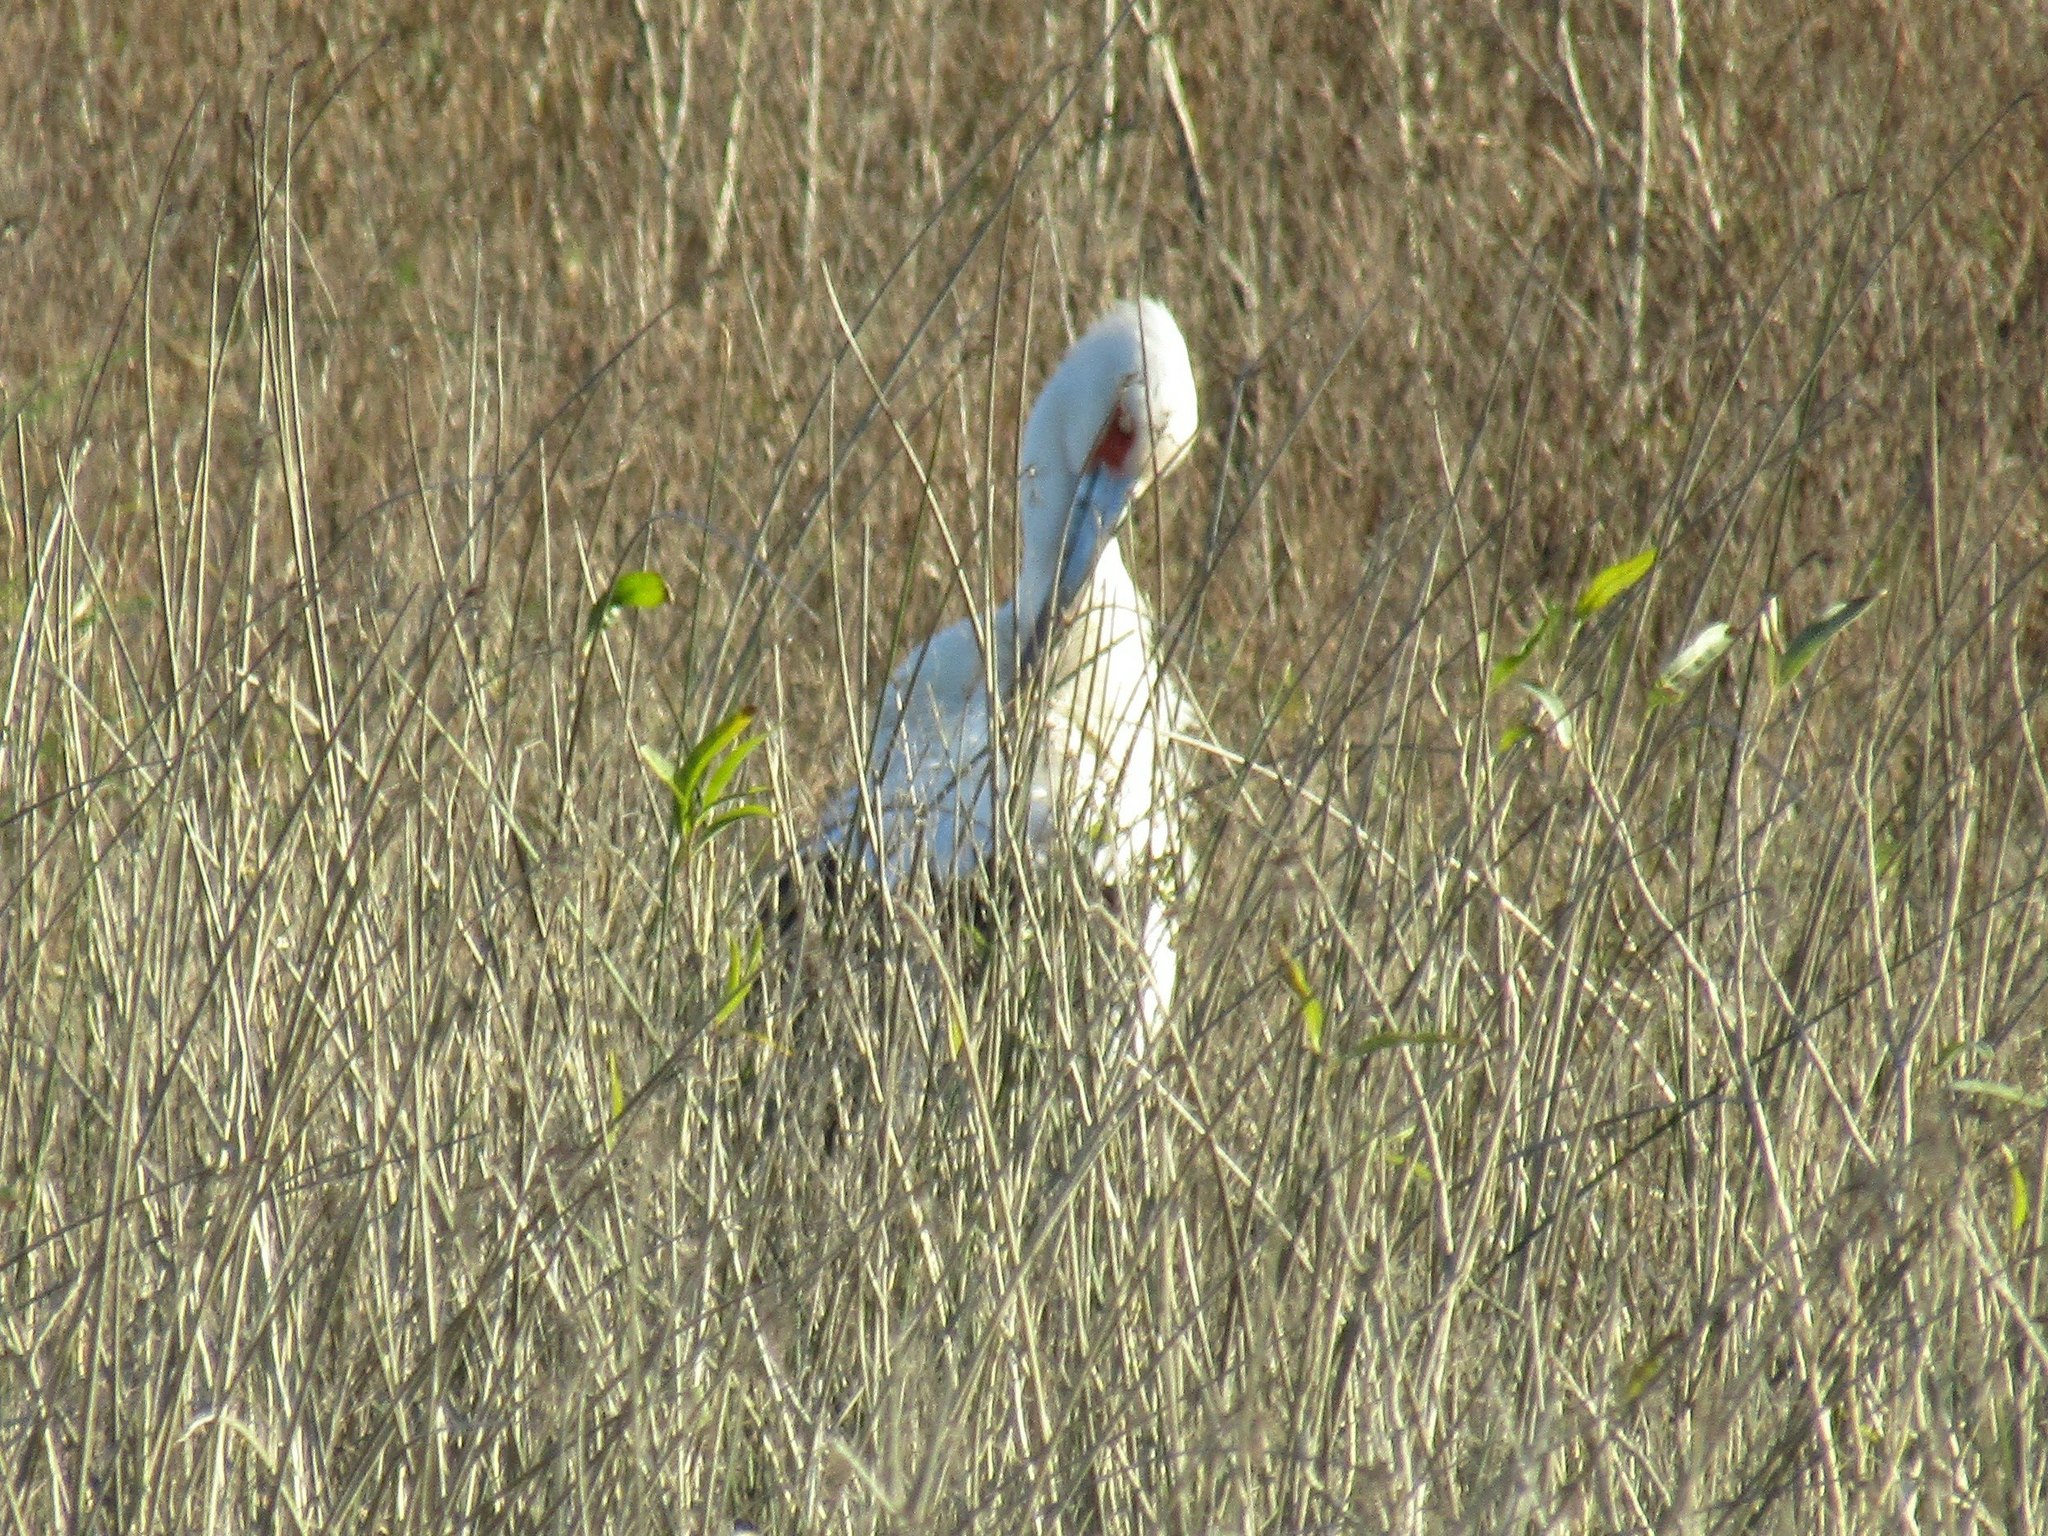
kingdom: Animalia
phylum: Chordata
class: Aves
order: Ciconiiformes
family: Ciconiidae
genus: Ciconia
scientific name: Ciconia maguari
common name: Maguari stork
